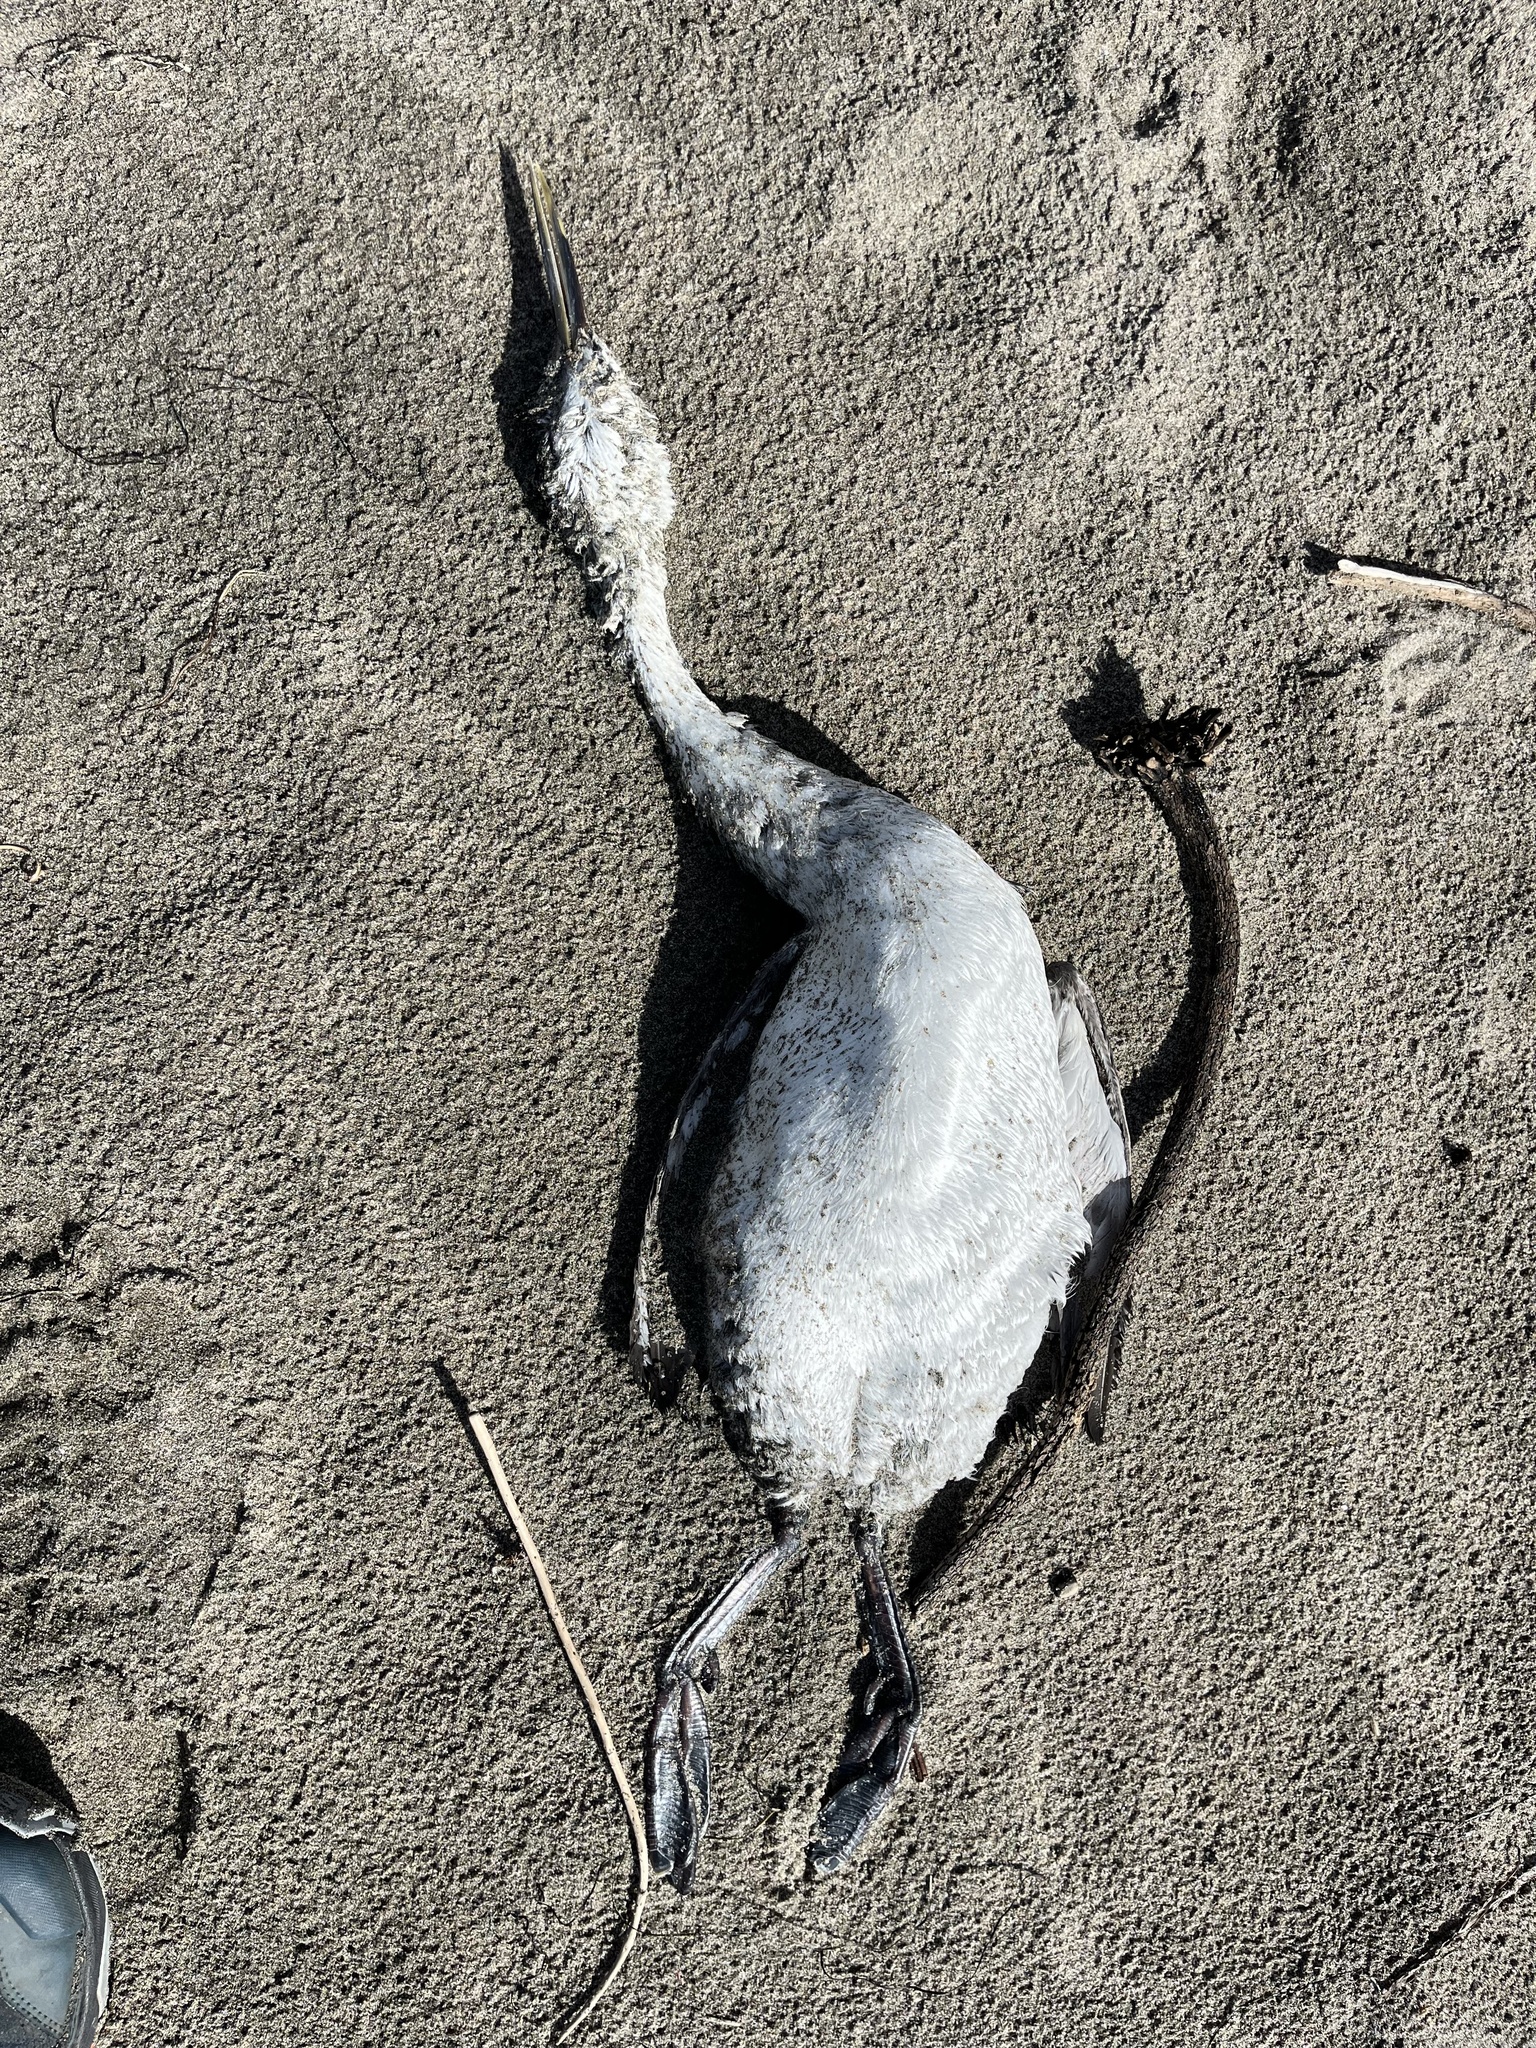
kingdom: Animalia
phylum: Chordata
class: Aves
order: Podicipediformes
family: Podicipedidae
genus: Aechmophorus
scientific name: Aechmophorus occidentalis
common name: Western grebe
